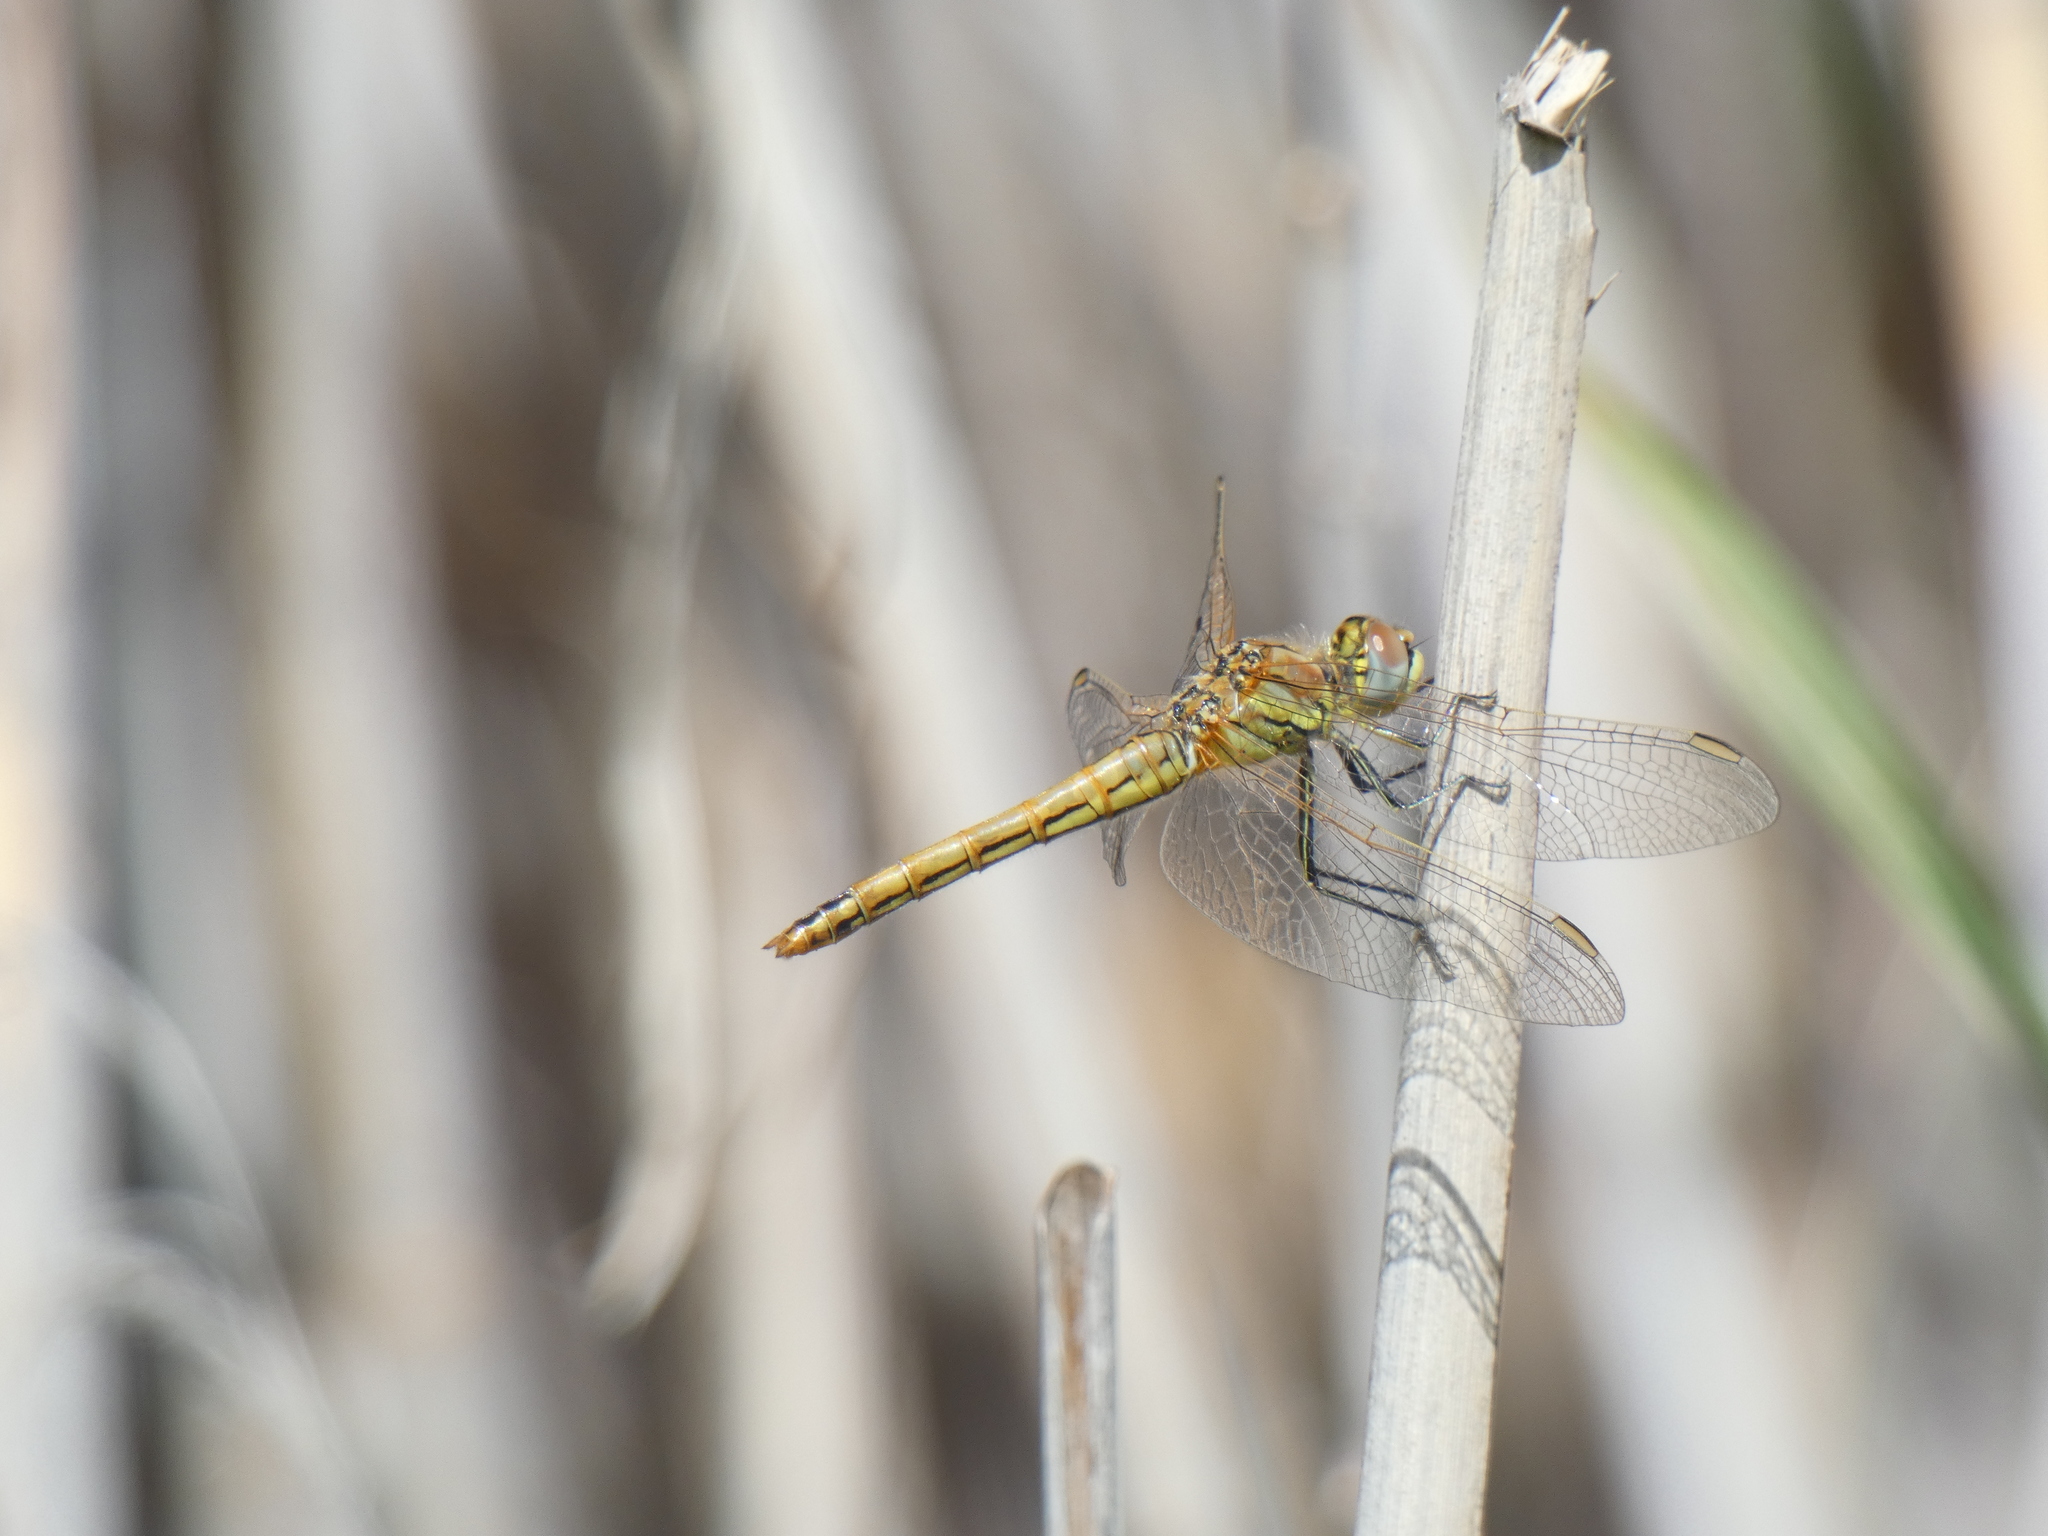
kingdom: Animalia
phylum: Arthropoda
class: Insecta
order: Odonata
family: Libellulidae
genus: Sympetrum
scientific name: Sympetrum fonscolombii
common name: Red-veined darter
